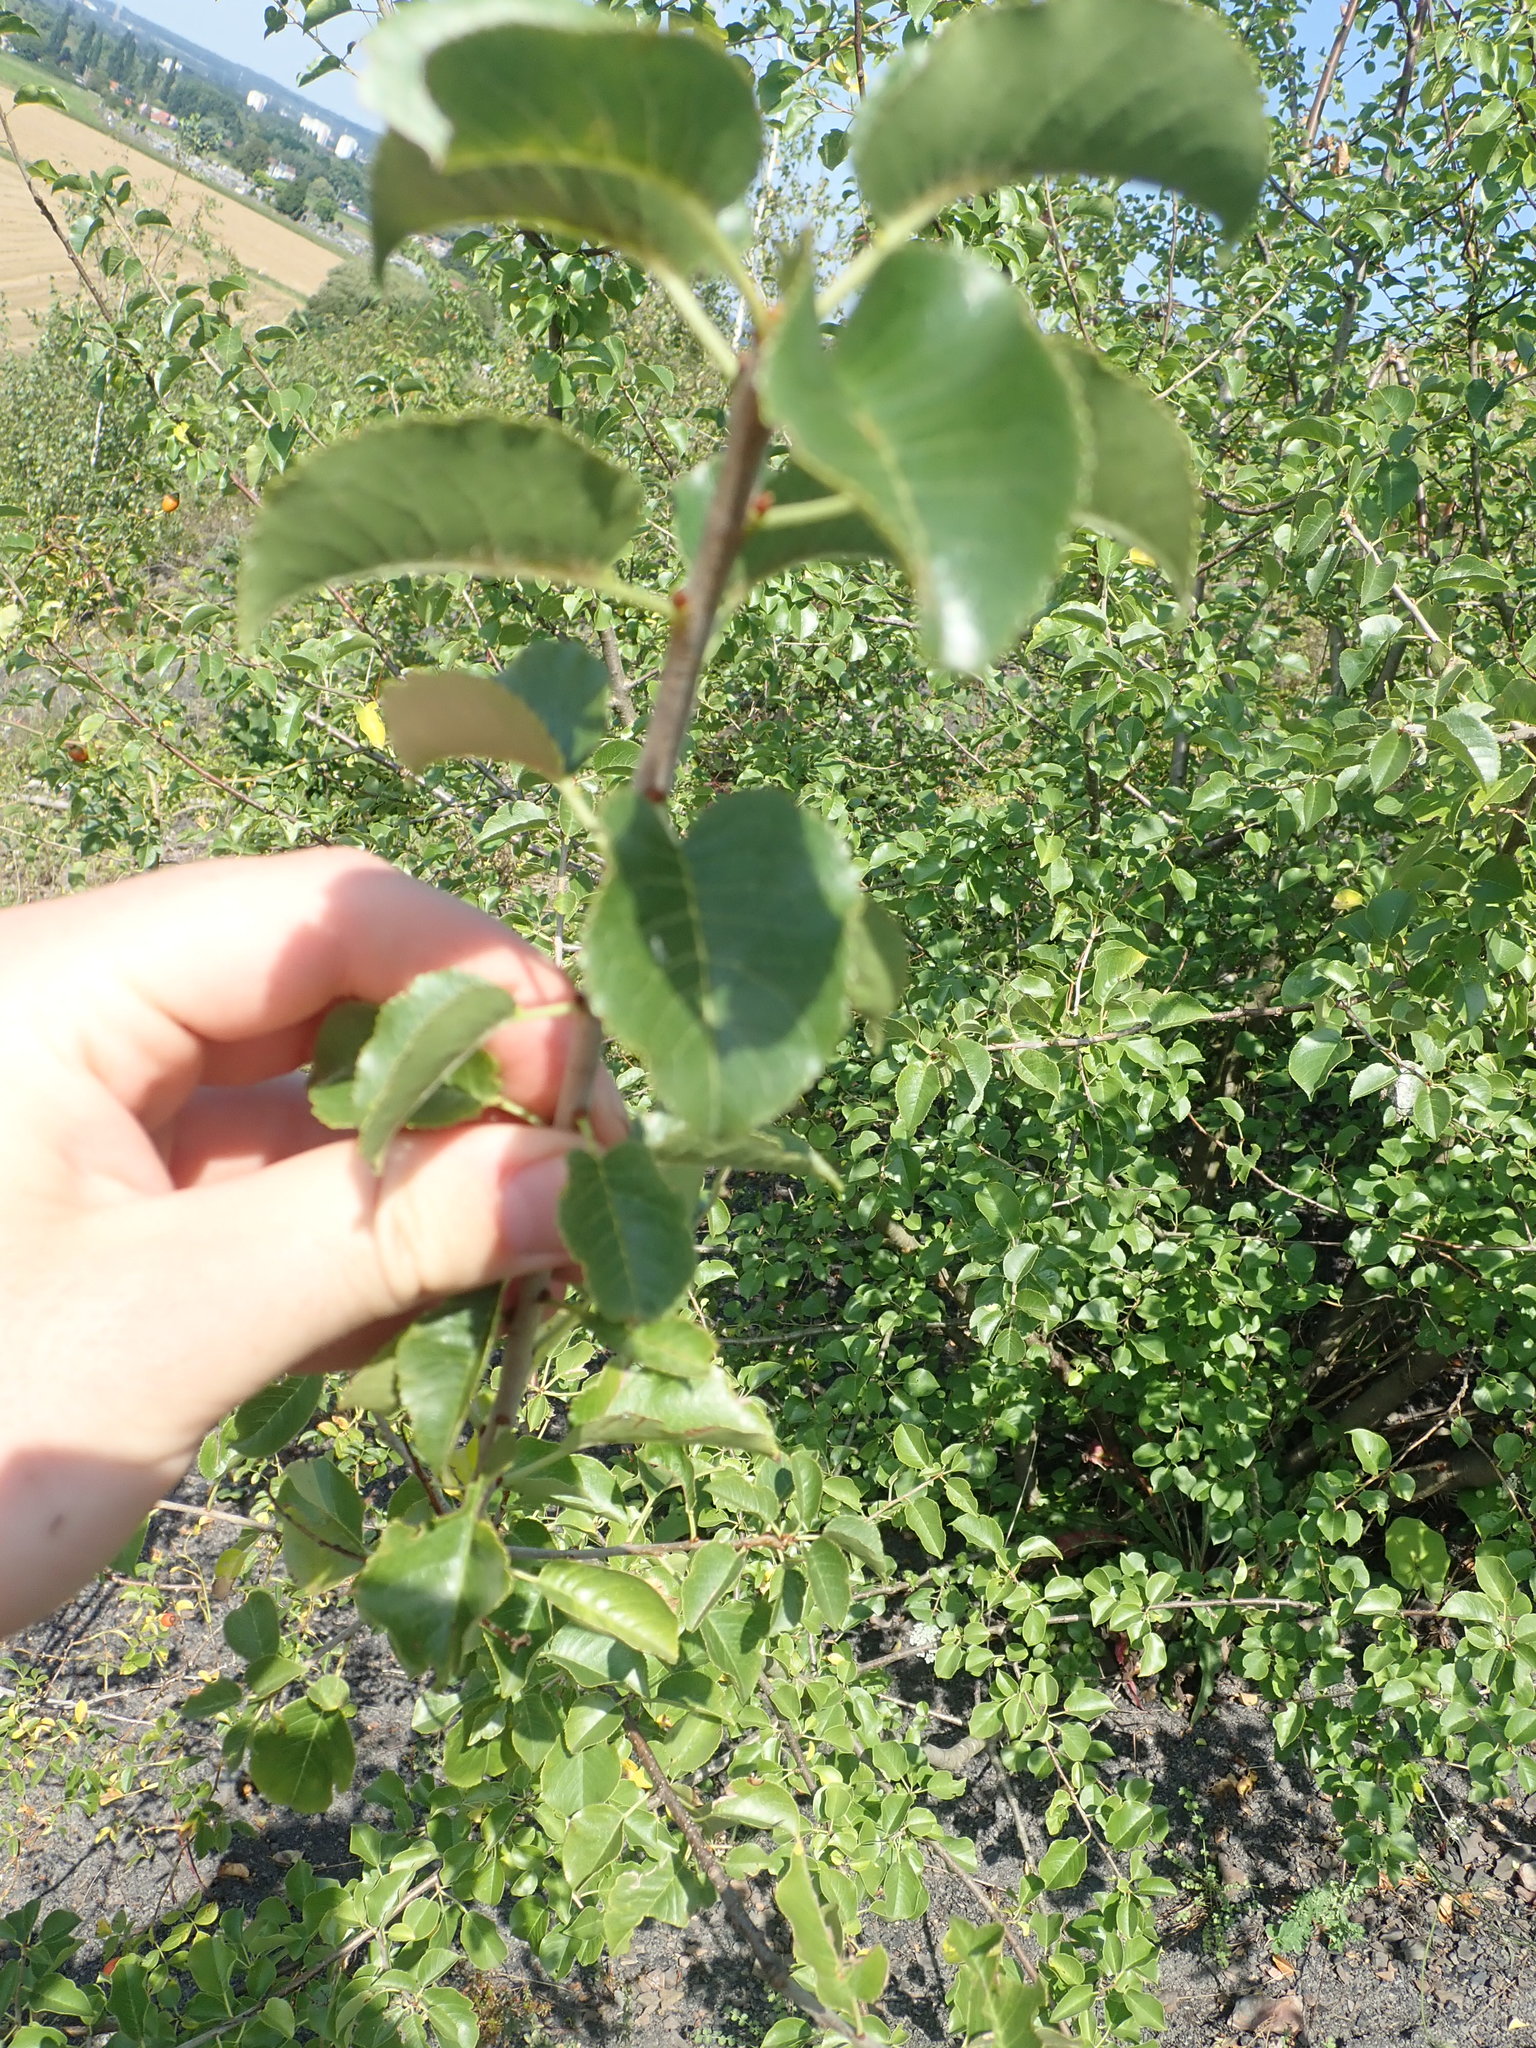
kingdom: Plantae
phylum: Tracheophyta
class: Magnoliopsida
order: Rosales
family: Rosaceae
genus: Prunus
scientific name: Prunus mahaleb
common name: Mahaleb cherry
